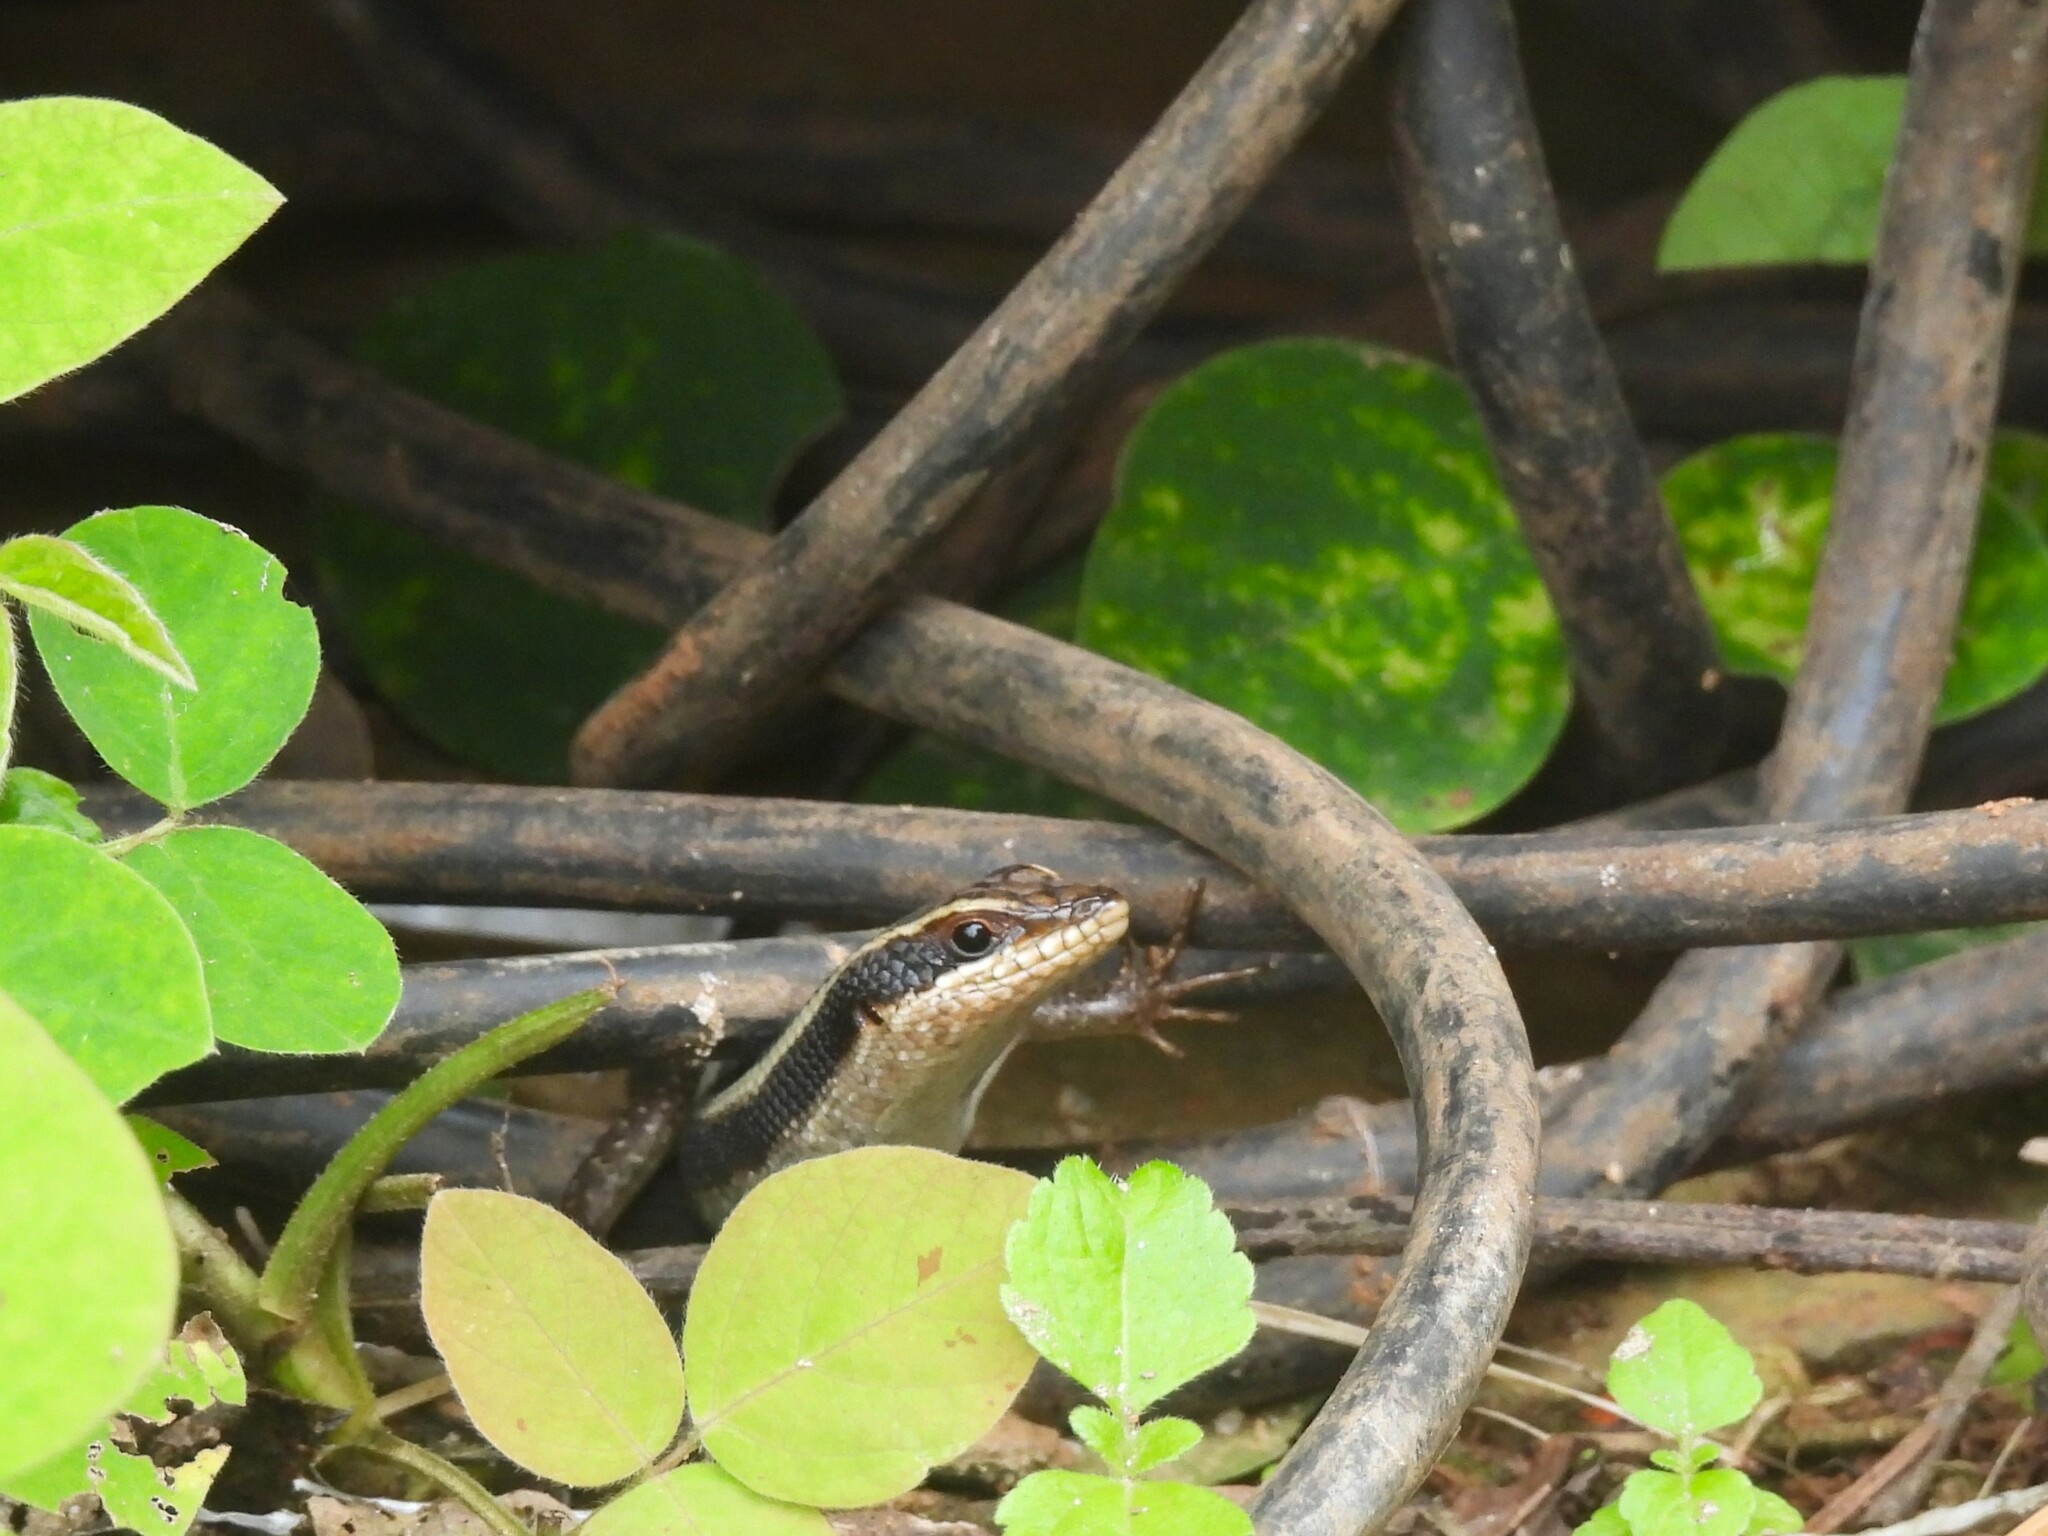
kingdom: Animalia
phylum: Chordata
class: Squamata
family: Scincidae
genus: Trachylepis
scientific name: Trachylepis striata
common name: African striped mabuya
